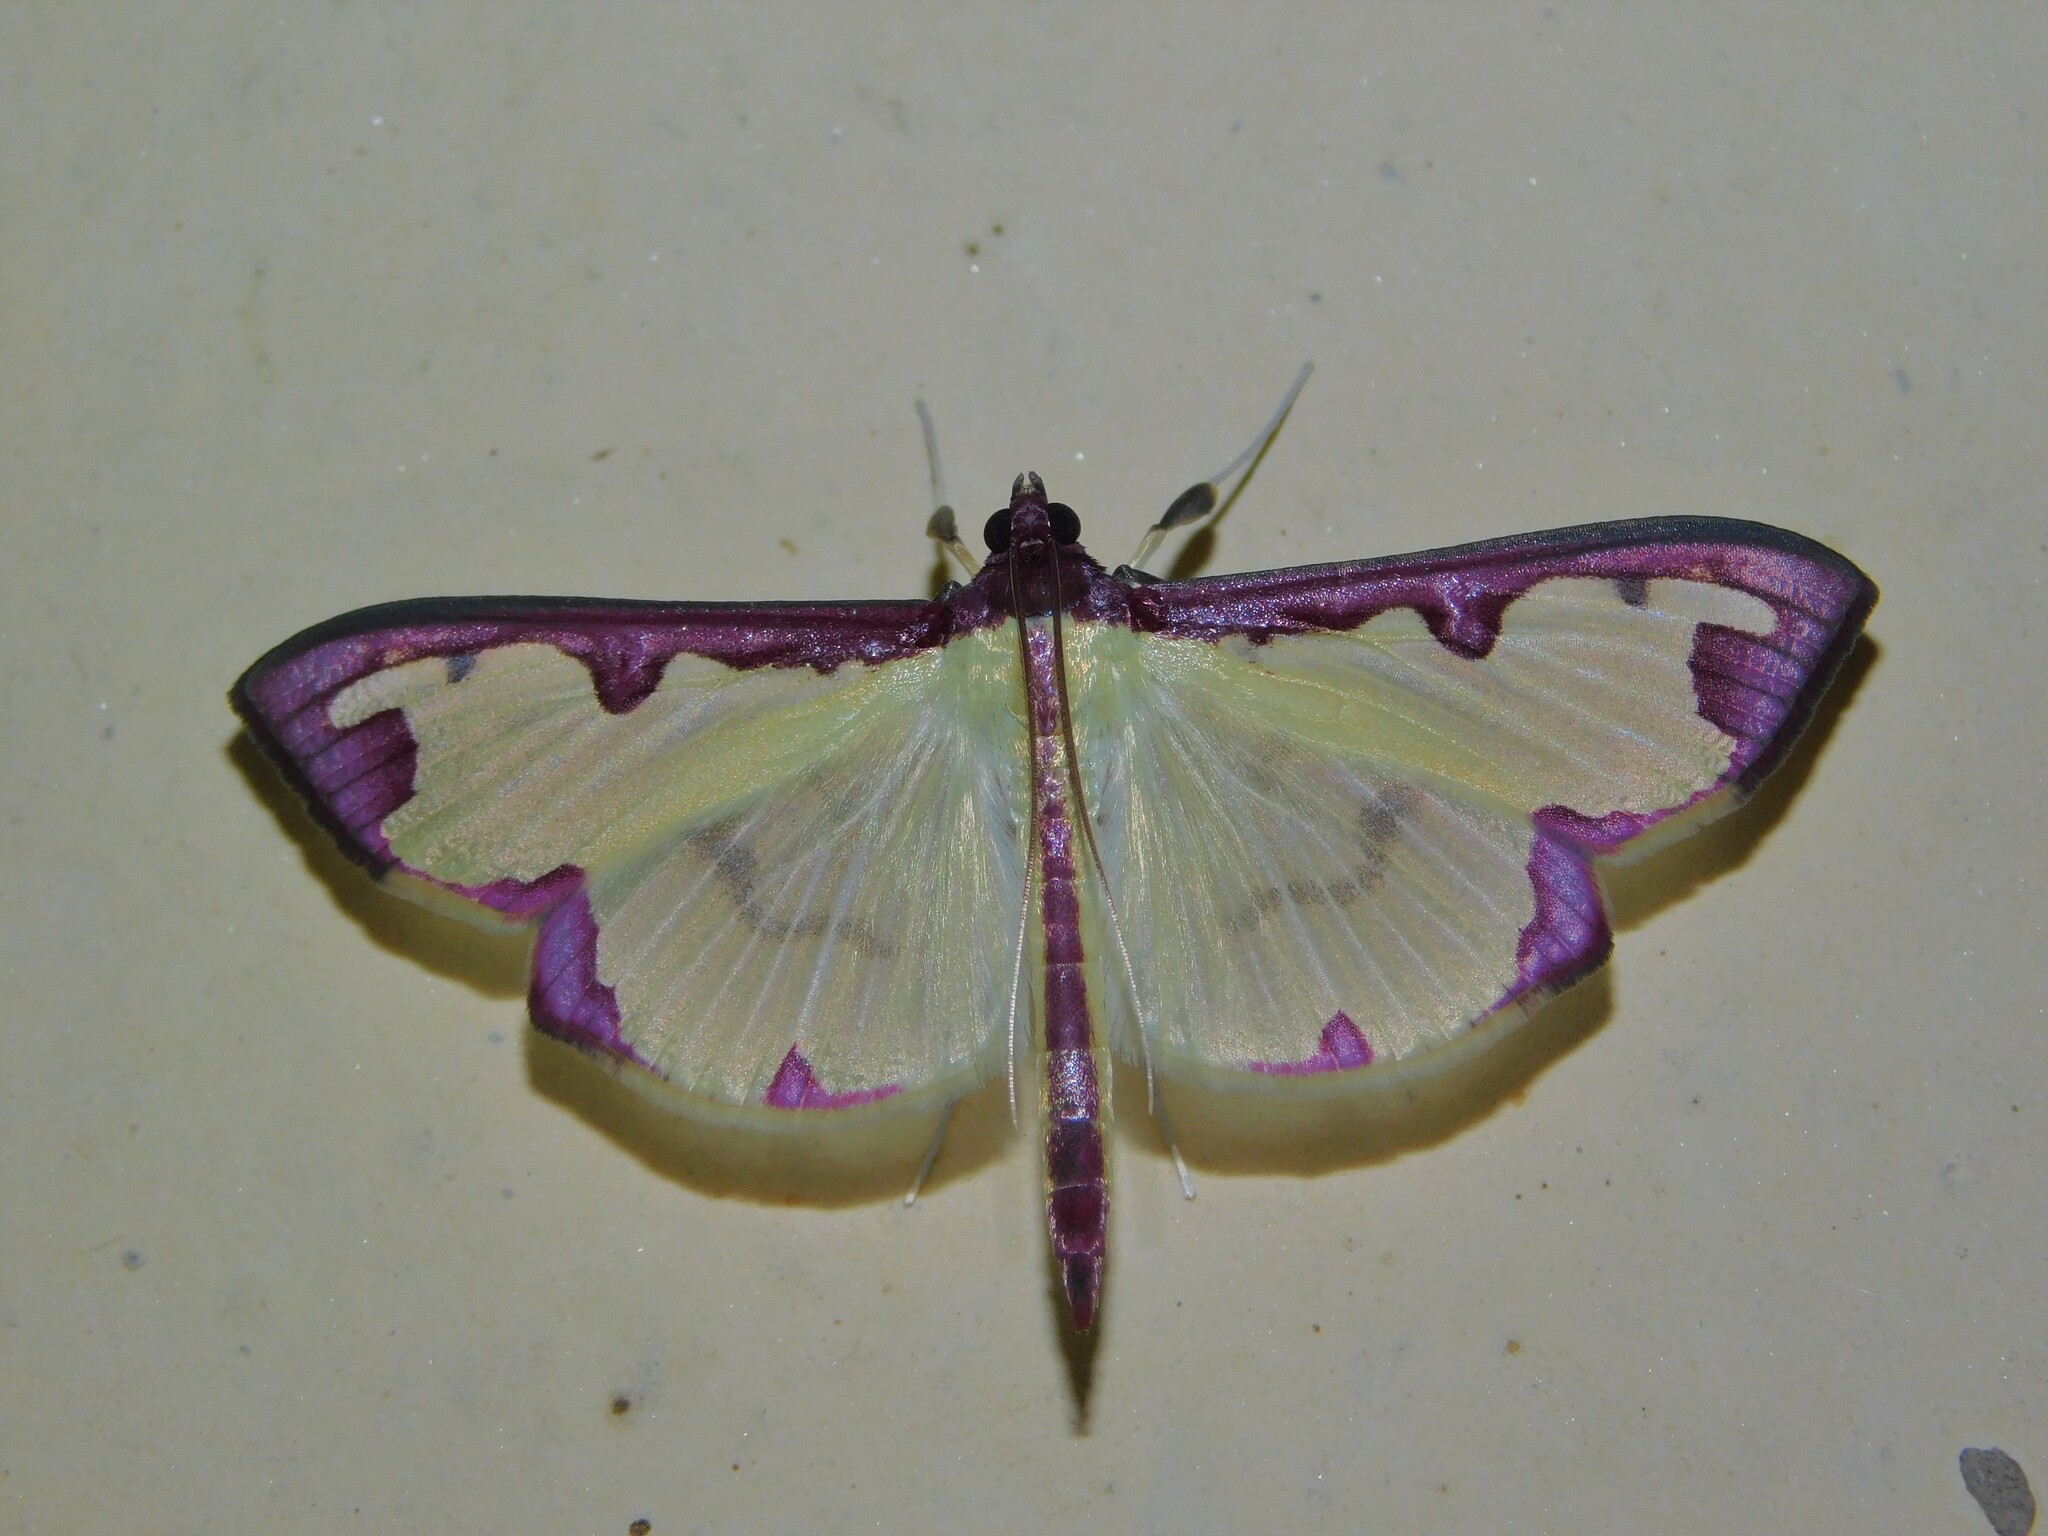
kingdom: Animalia
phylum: Arthropoda
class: Insecta
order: Lepidoptera
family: Crambidae
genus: Cadarena
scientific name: Cadarena pudoraria
